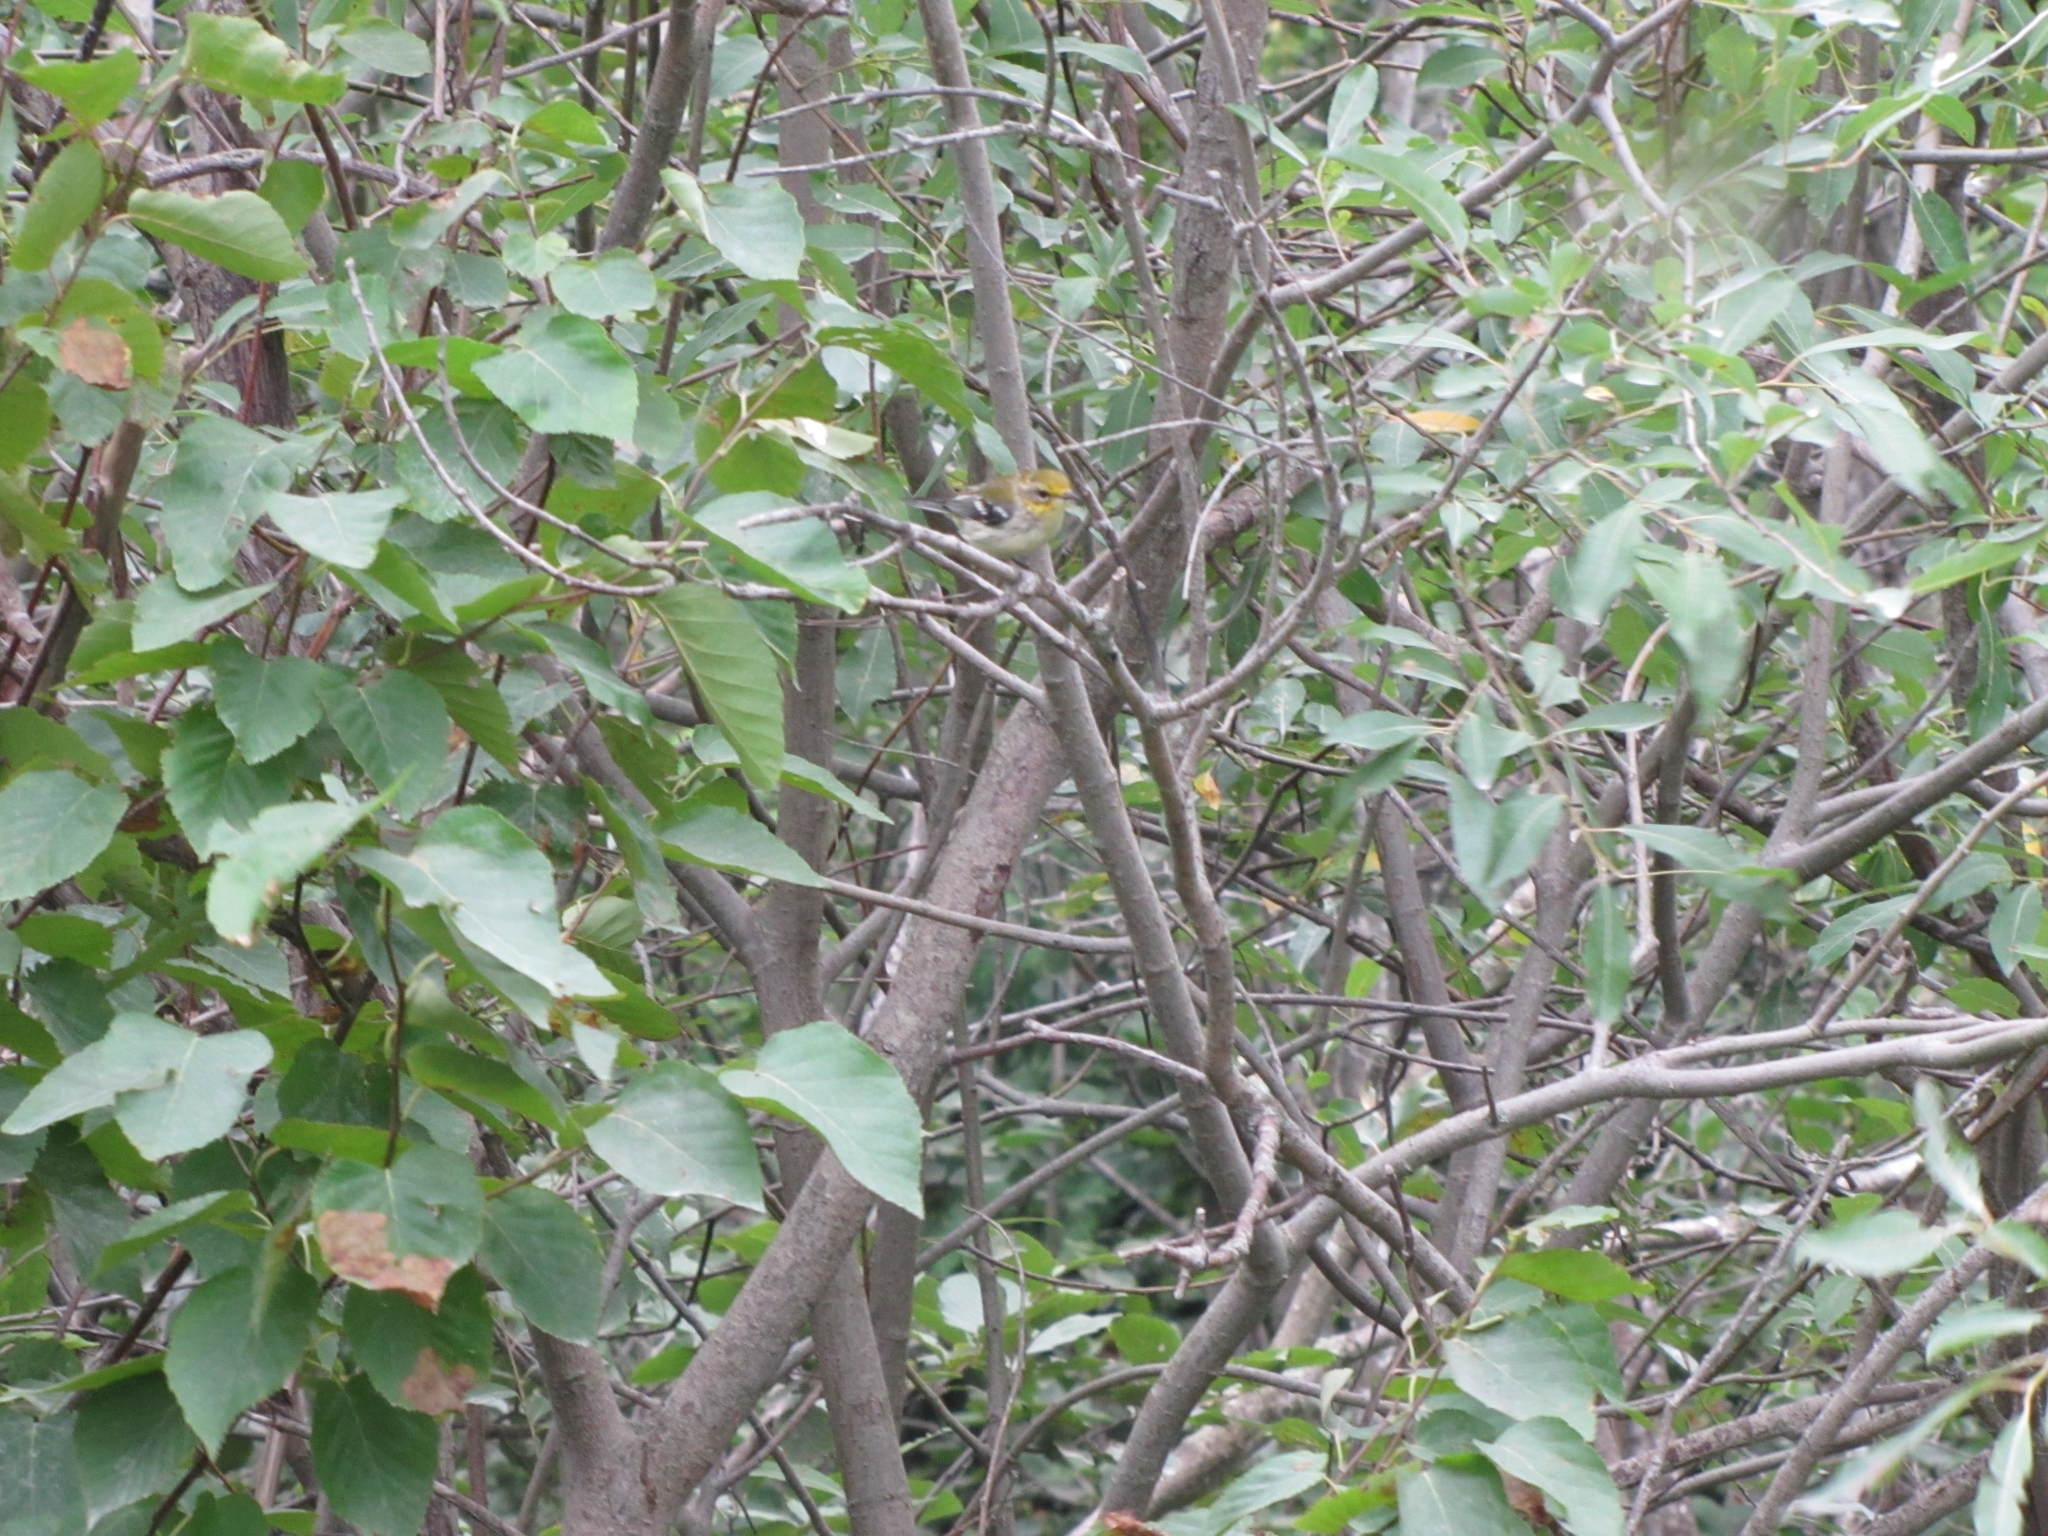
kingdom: Animalia
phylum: Chordata
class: Aves
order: Passeriformes
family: Parulidae
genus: Setophaga
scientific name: Setophaga virens
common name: Black-throated green warbler
